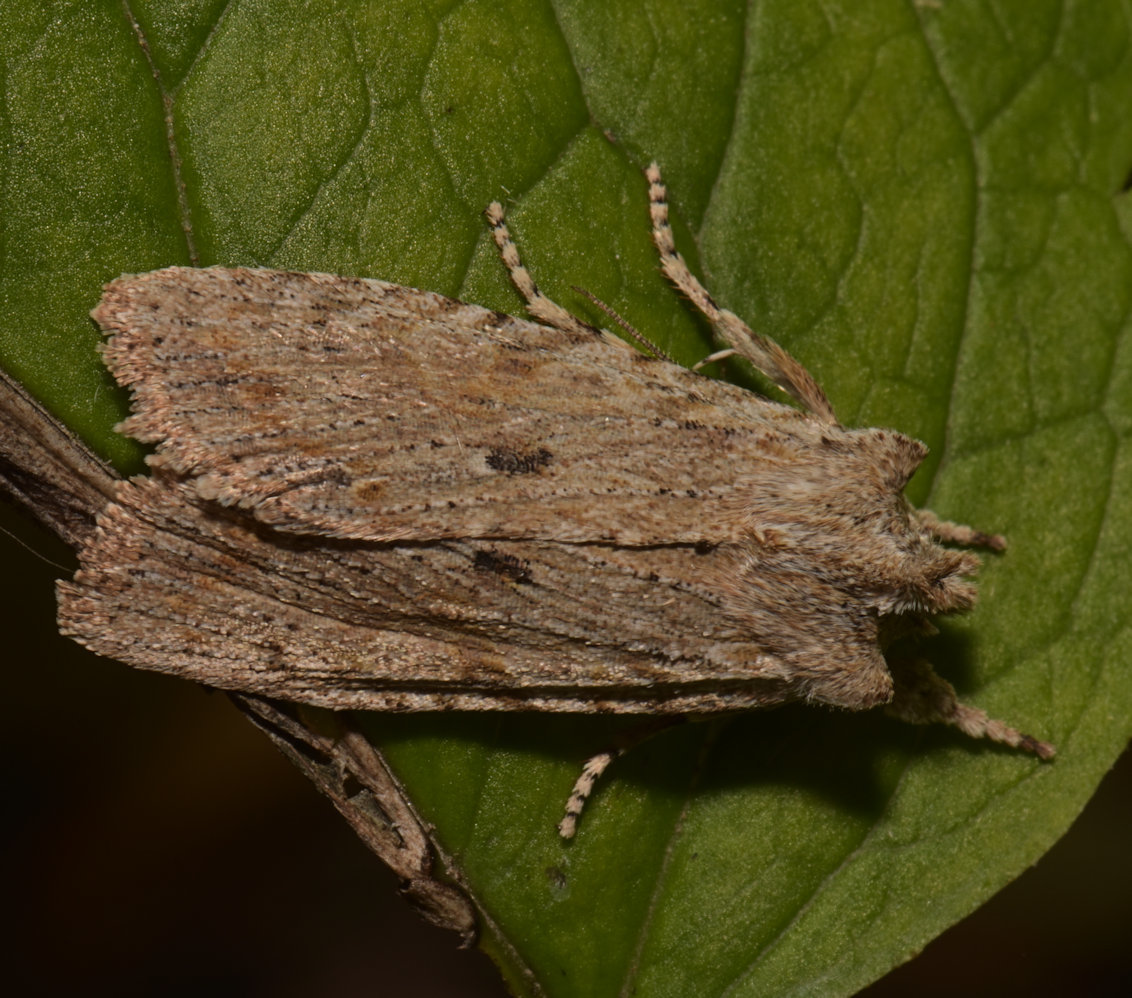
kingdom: Animalia
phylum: Arthropoda
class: Insecta
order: Lepidoptera
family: Noctuidae
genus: Lithophane
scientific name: Lithophane patefacta
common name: Dimorphic pinion moth
